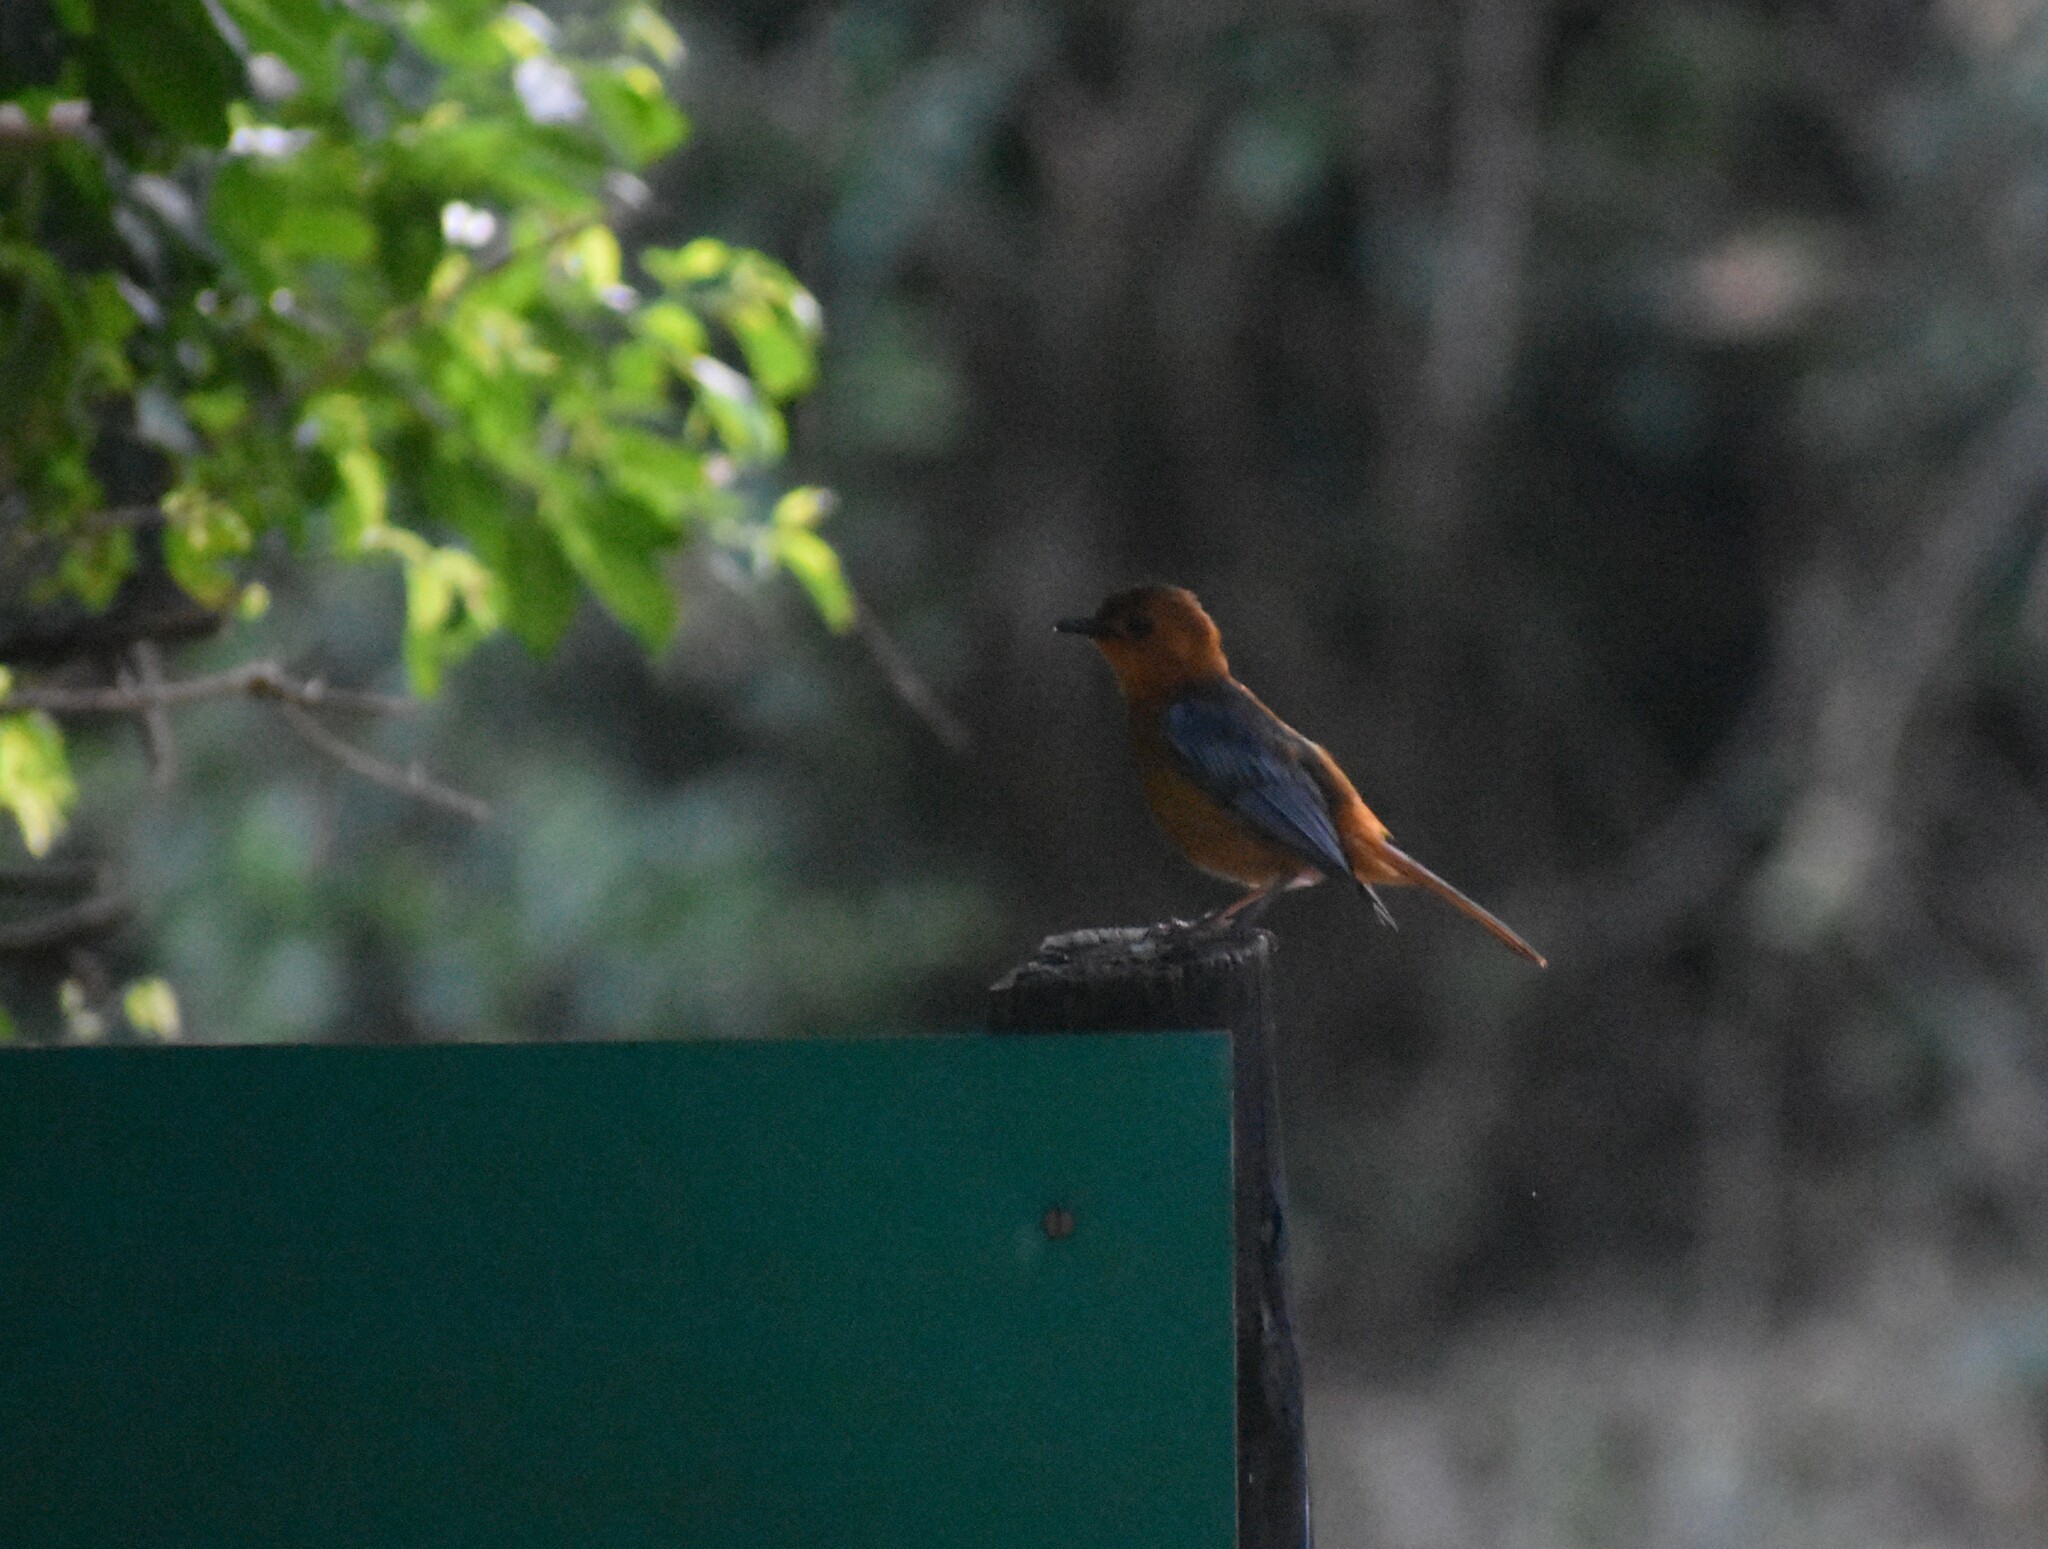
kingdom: Animalia
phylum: Chordata
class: Aves
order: Passeriformes
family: Muscicapidae
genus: Cossypha
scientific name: Cossypha natalensis
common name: Red-capped robin-chat
